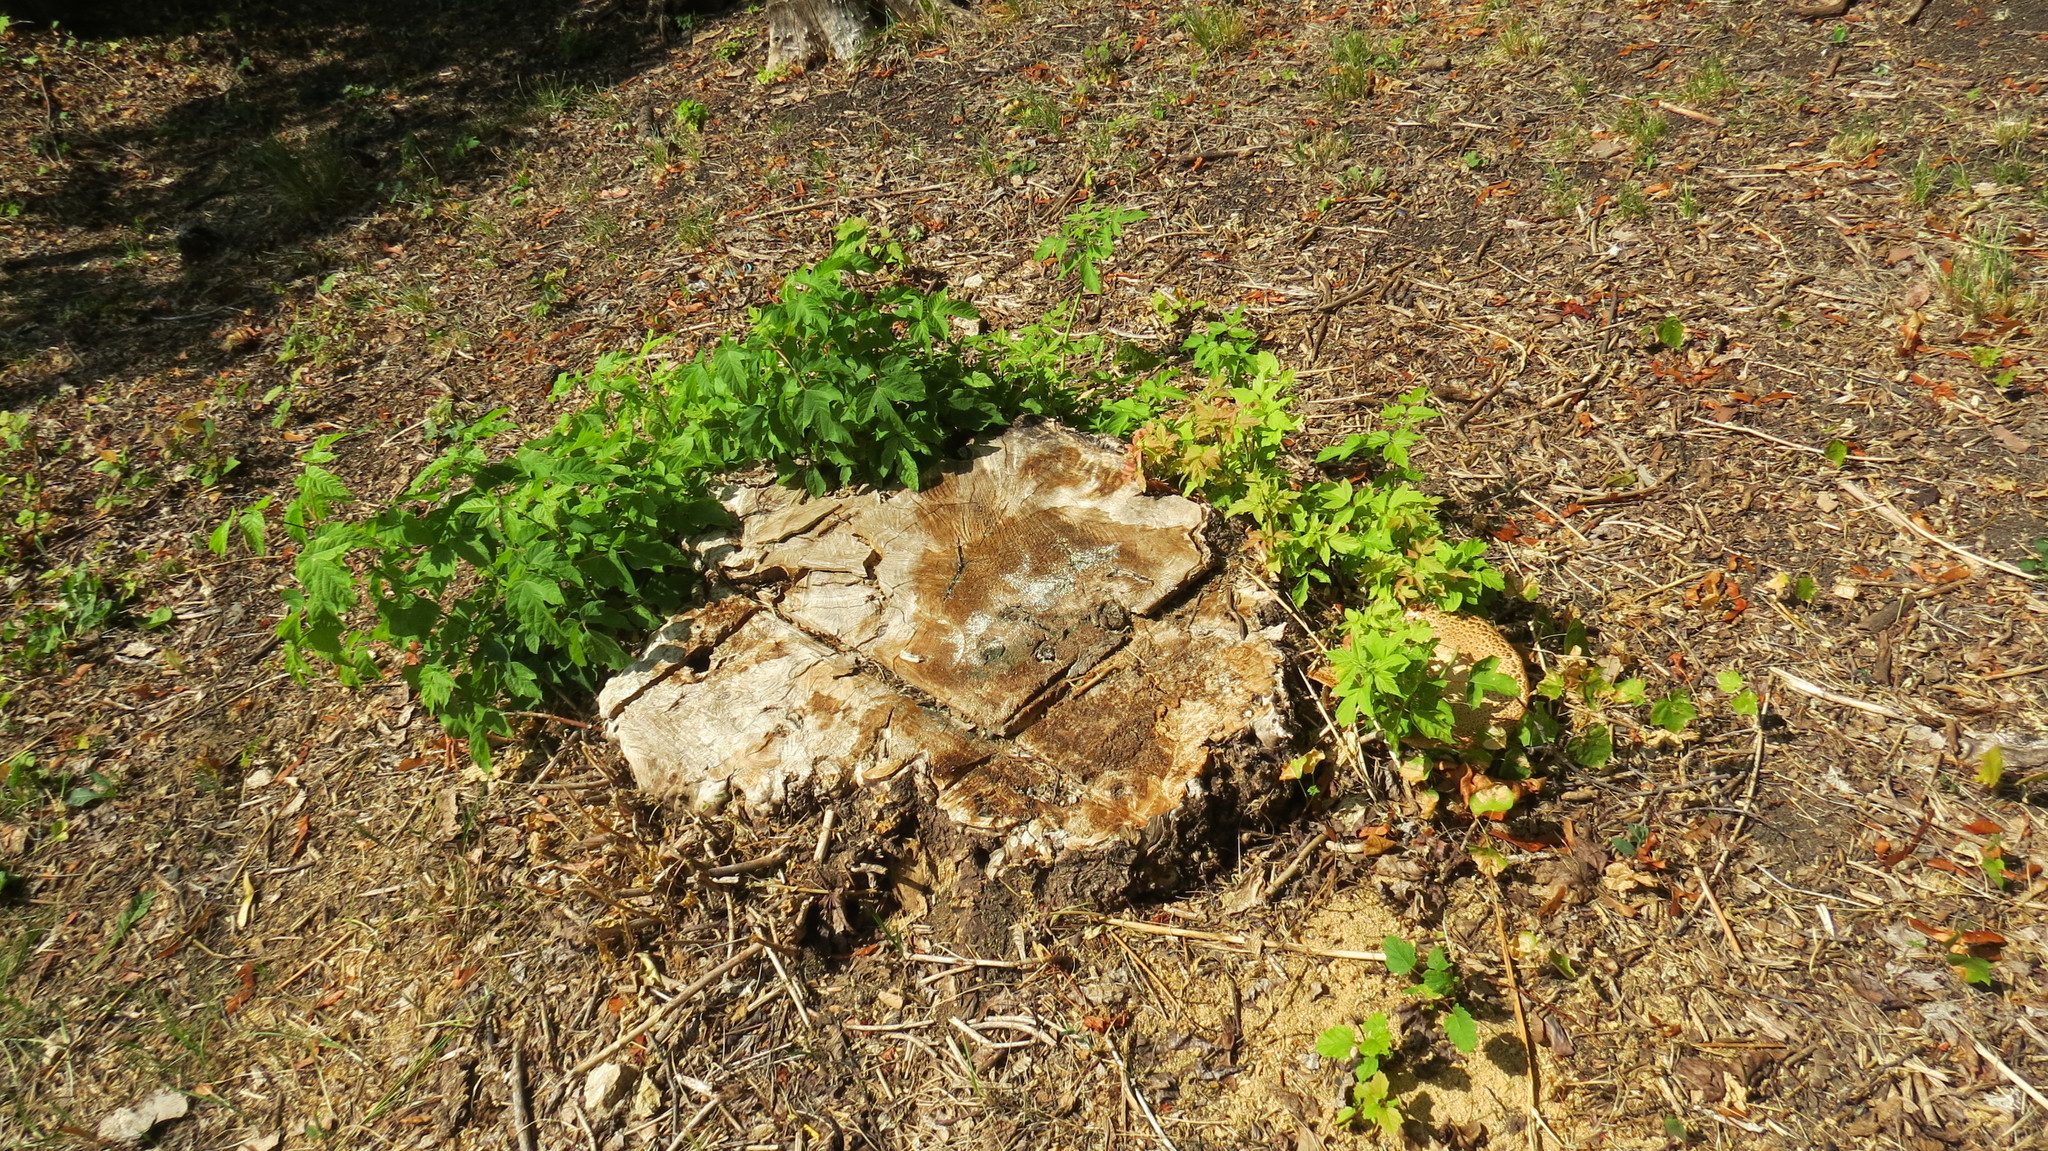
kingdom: Fungi
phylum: Basidiomycota
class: Agaricomycetes
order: Polyporales
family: Polyporaceae
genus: Cerioporus
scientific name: Cerioporus squamosus
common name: Dryad's saddle
